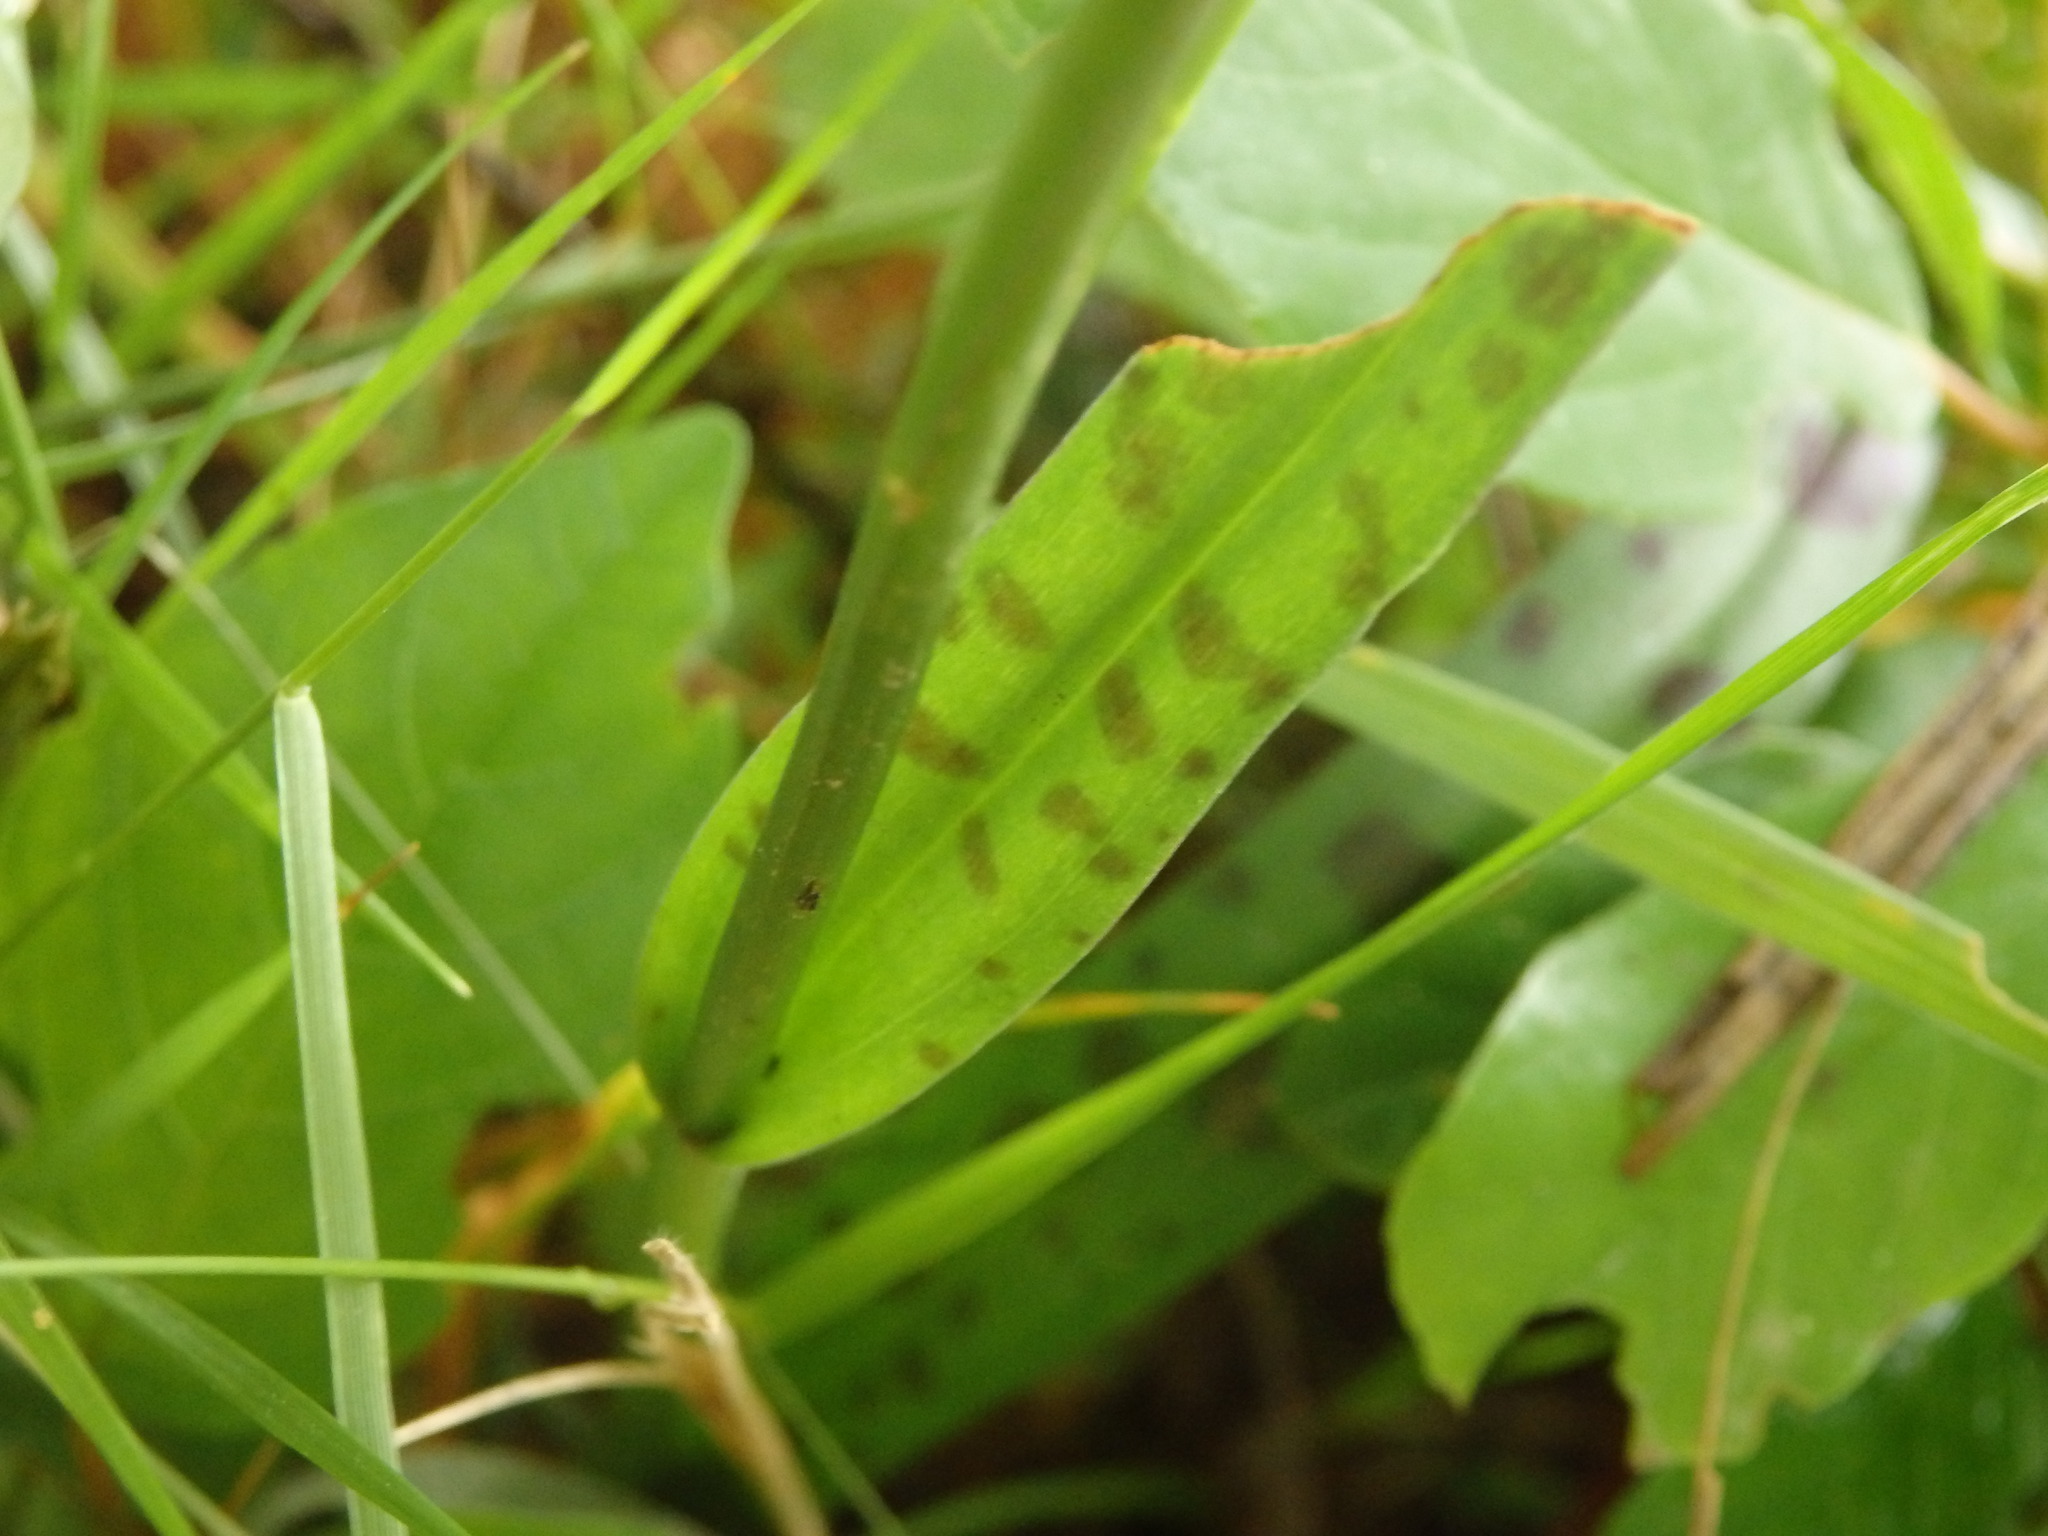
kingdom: Plantae
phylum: Tracheophyta
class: Liliopsida
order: Asparagales
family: Orchidaceae
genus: Dactylorhiza
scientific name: Dactylorhiza maculata
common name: Heath spotted-orchid
